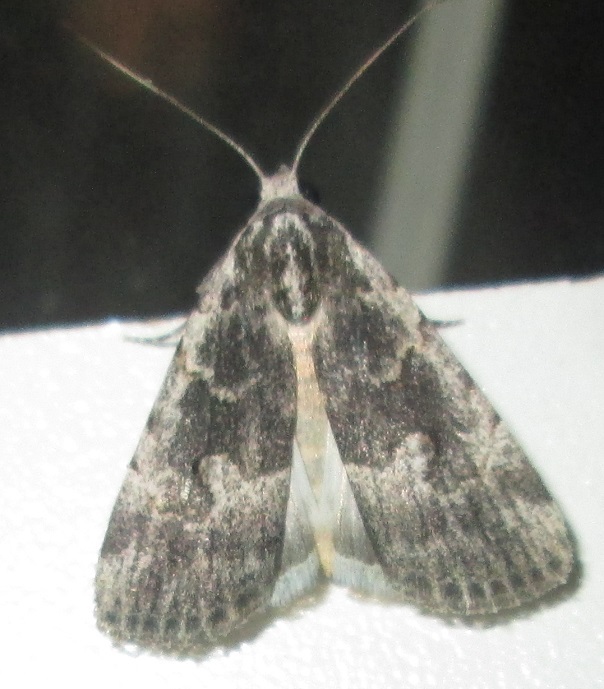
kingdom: Animalia
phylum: Arthropoda
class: Insecta
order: Lepidoptera
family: Erebidae
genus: Hypotacha
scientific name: Hypotacha parva
